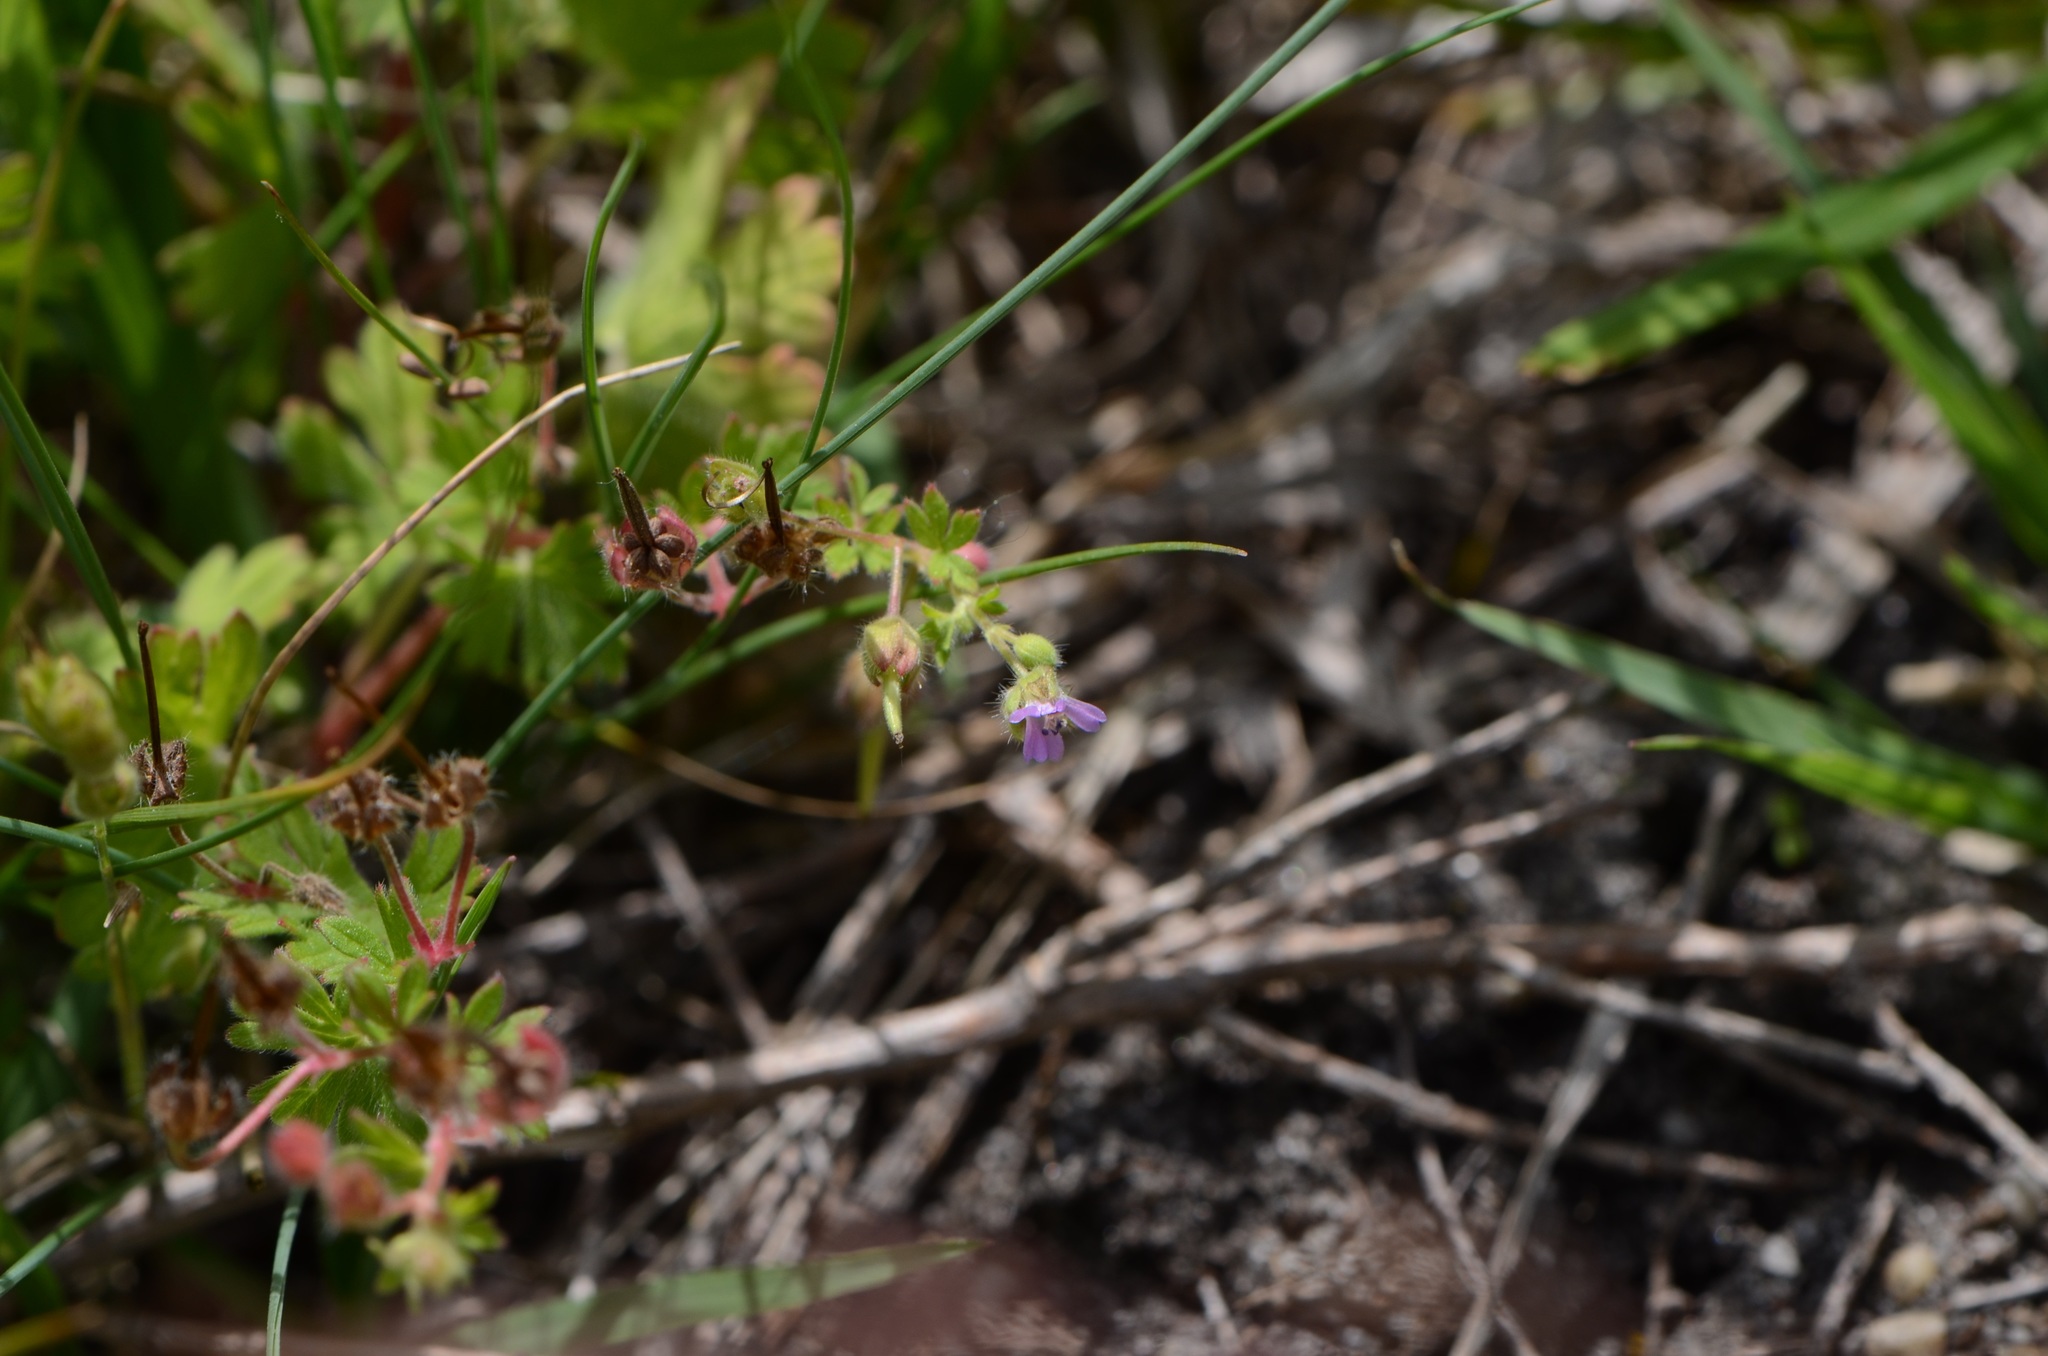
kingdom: Plantae
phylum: Tracheophyta
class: Magnoliopsida
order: Geraniales
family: Geraniaceae
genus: Geranium
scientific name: Geranium pusillum
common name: Small geranium
